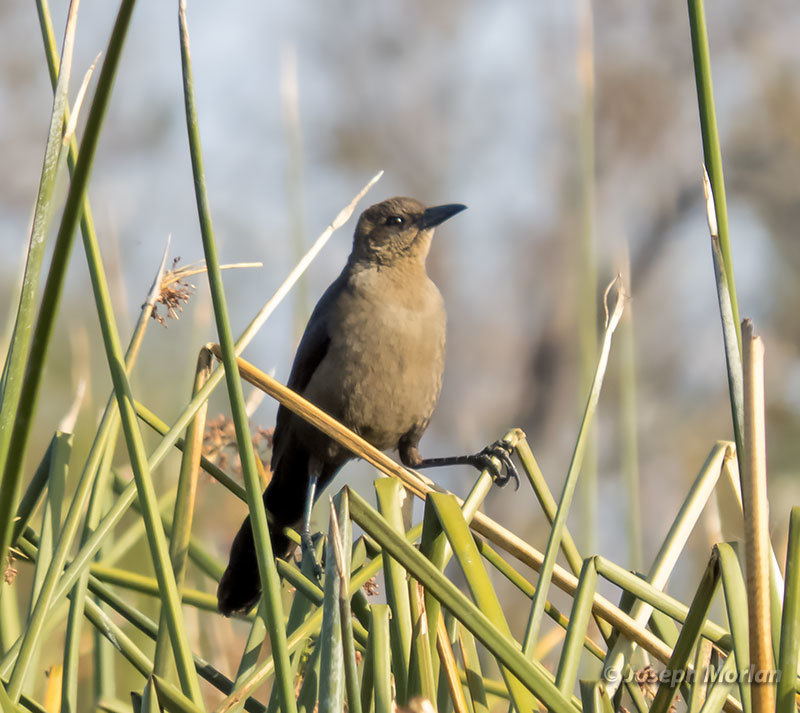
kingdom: Animalia
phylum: Chordata
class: Aves
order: Passeriformes
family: Icteridae
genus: Quiscalus
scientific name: Quiscalus mexicanus
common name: Great-tailed grackle
